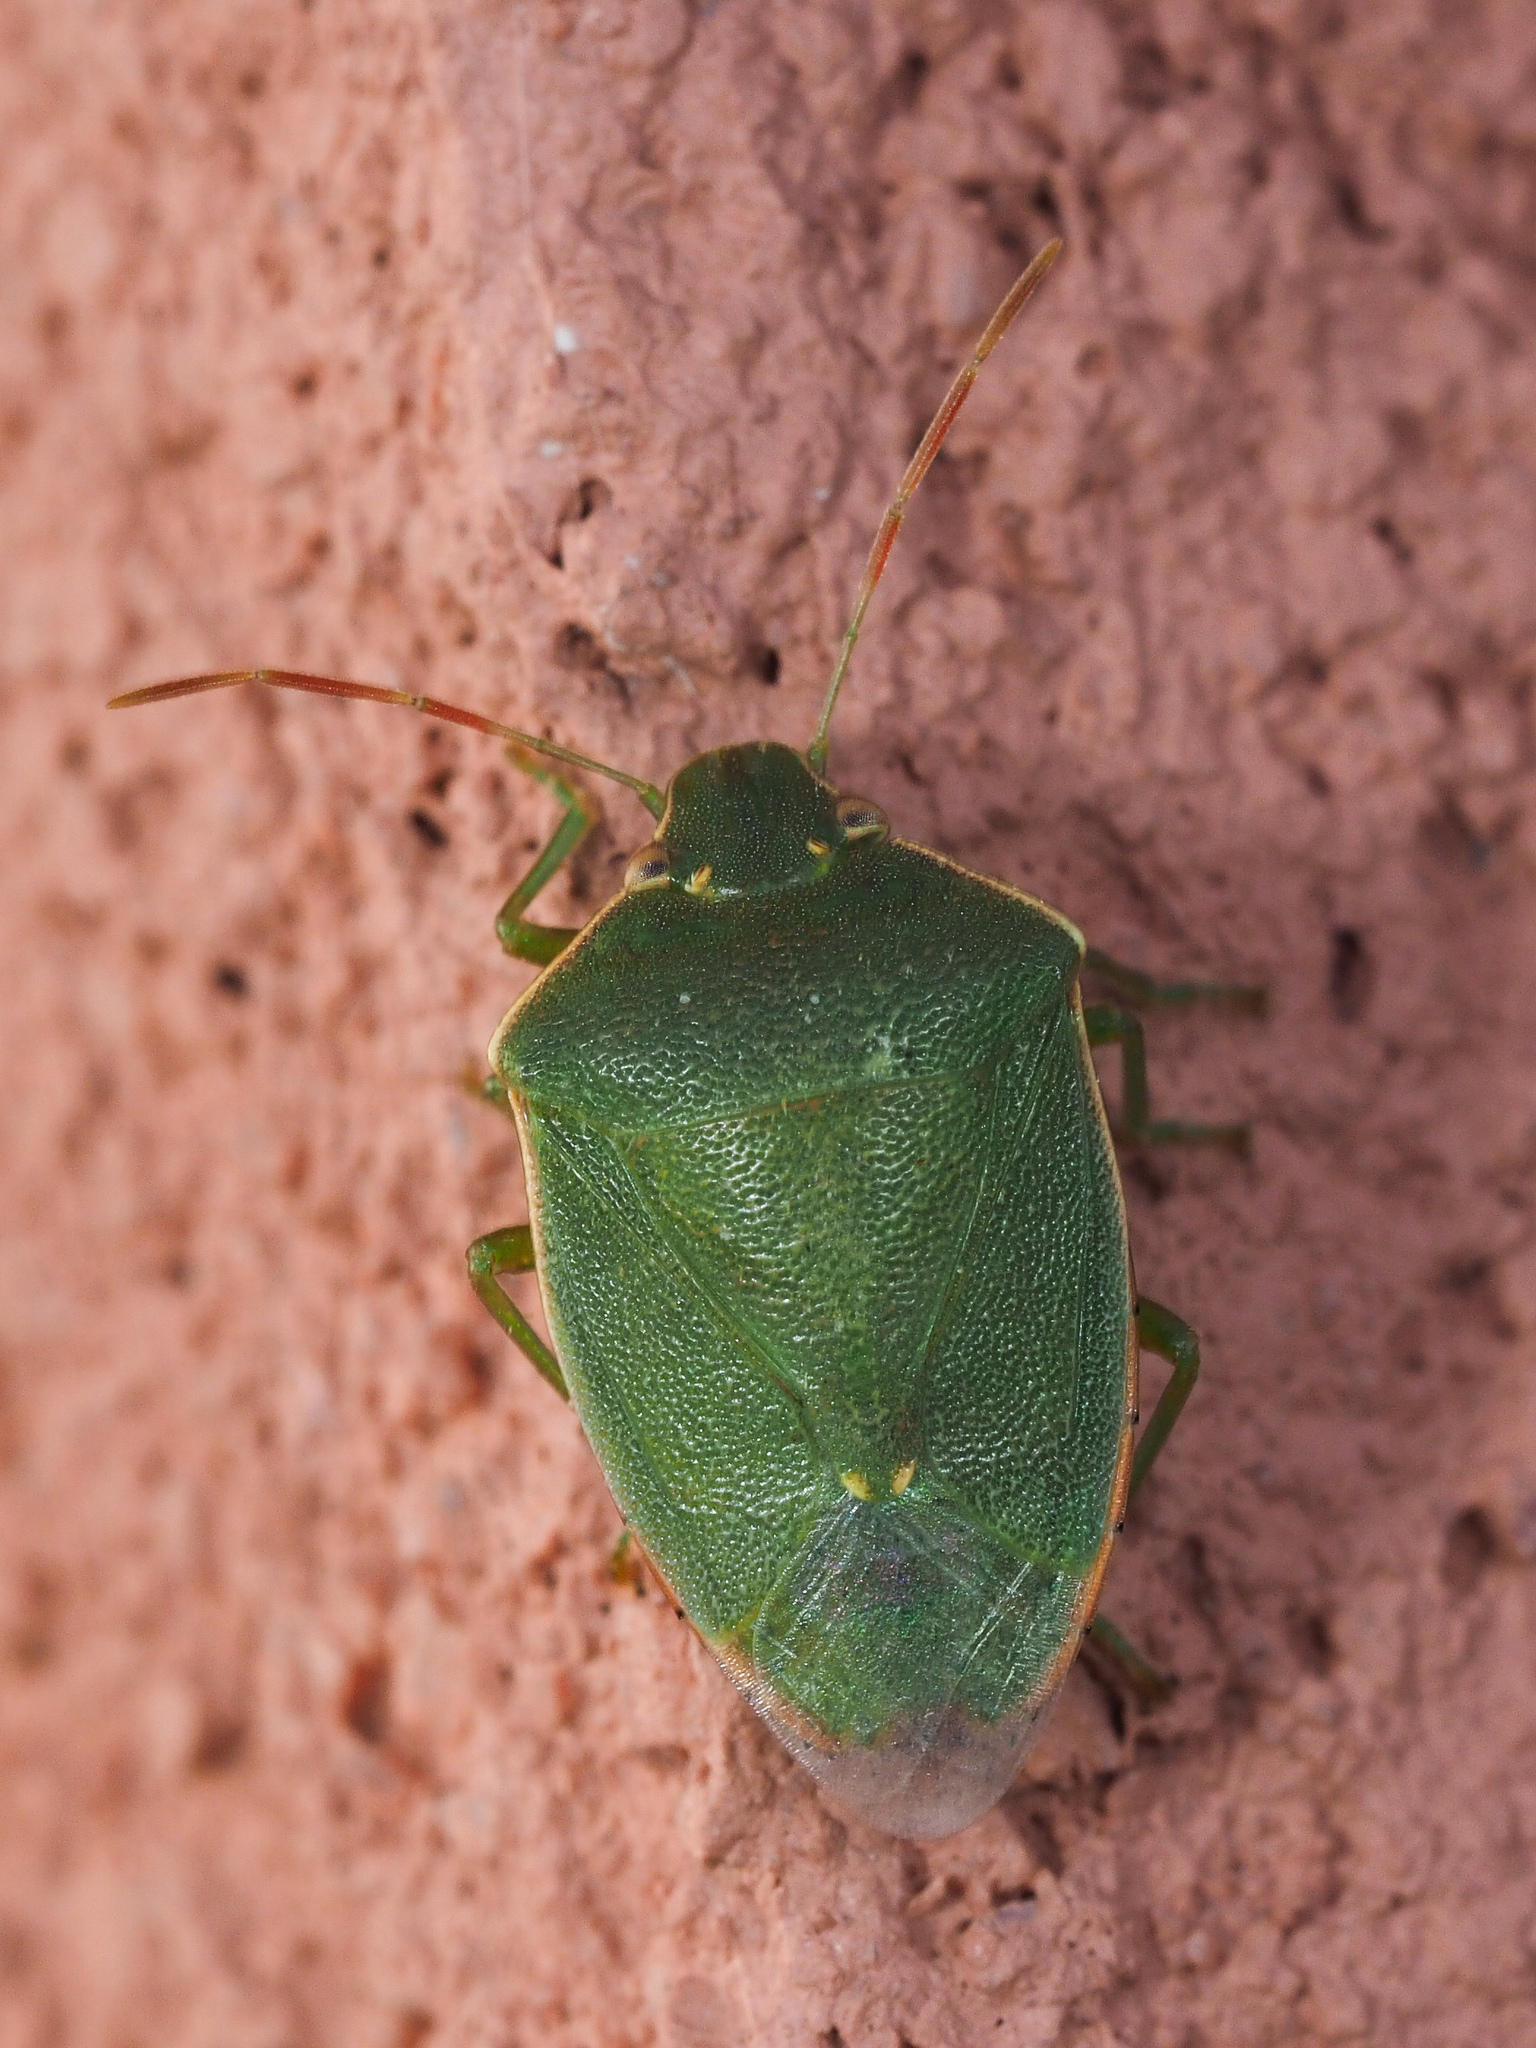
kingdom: Animalia
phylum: Arthropoda
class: Insecta
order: Hemiptera
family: Pentatomidae
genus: Acrosternum
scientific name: Acrosternum heegeri
